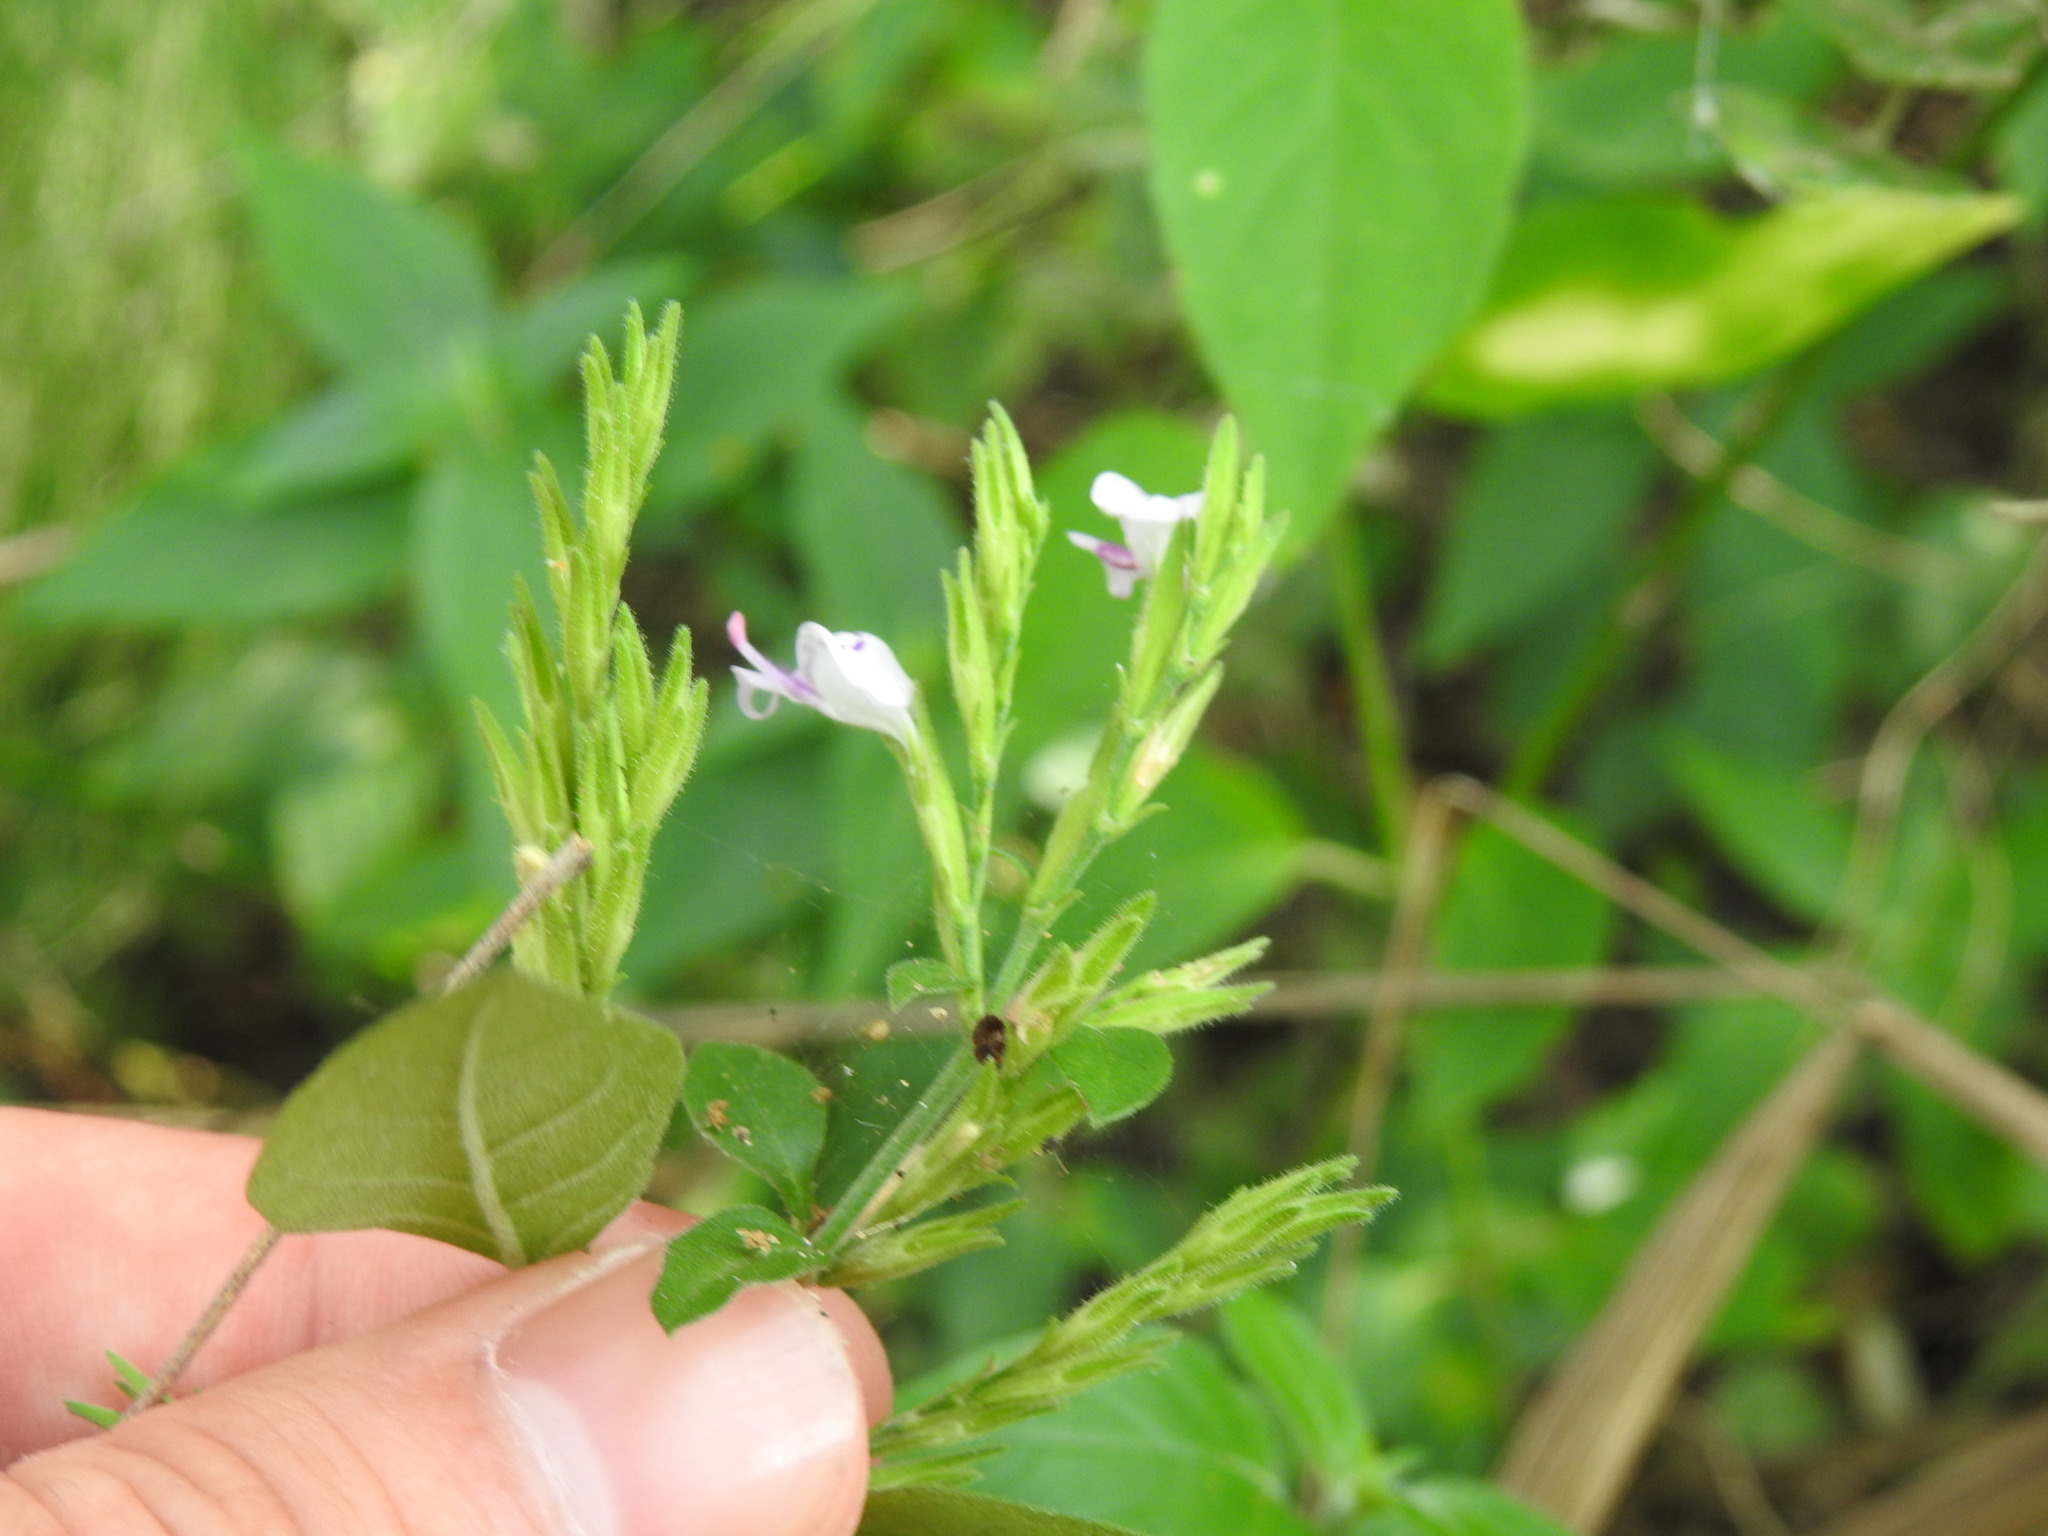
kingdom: Plantae
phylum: Tracheophyta
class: Magnoliopsida
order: Lamiales
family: Acanthaceae
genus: Hypoestes
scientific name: Hypoestes forskaolii
